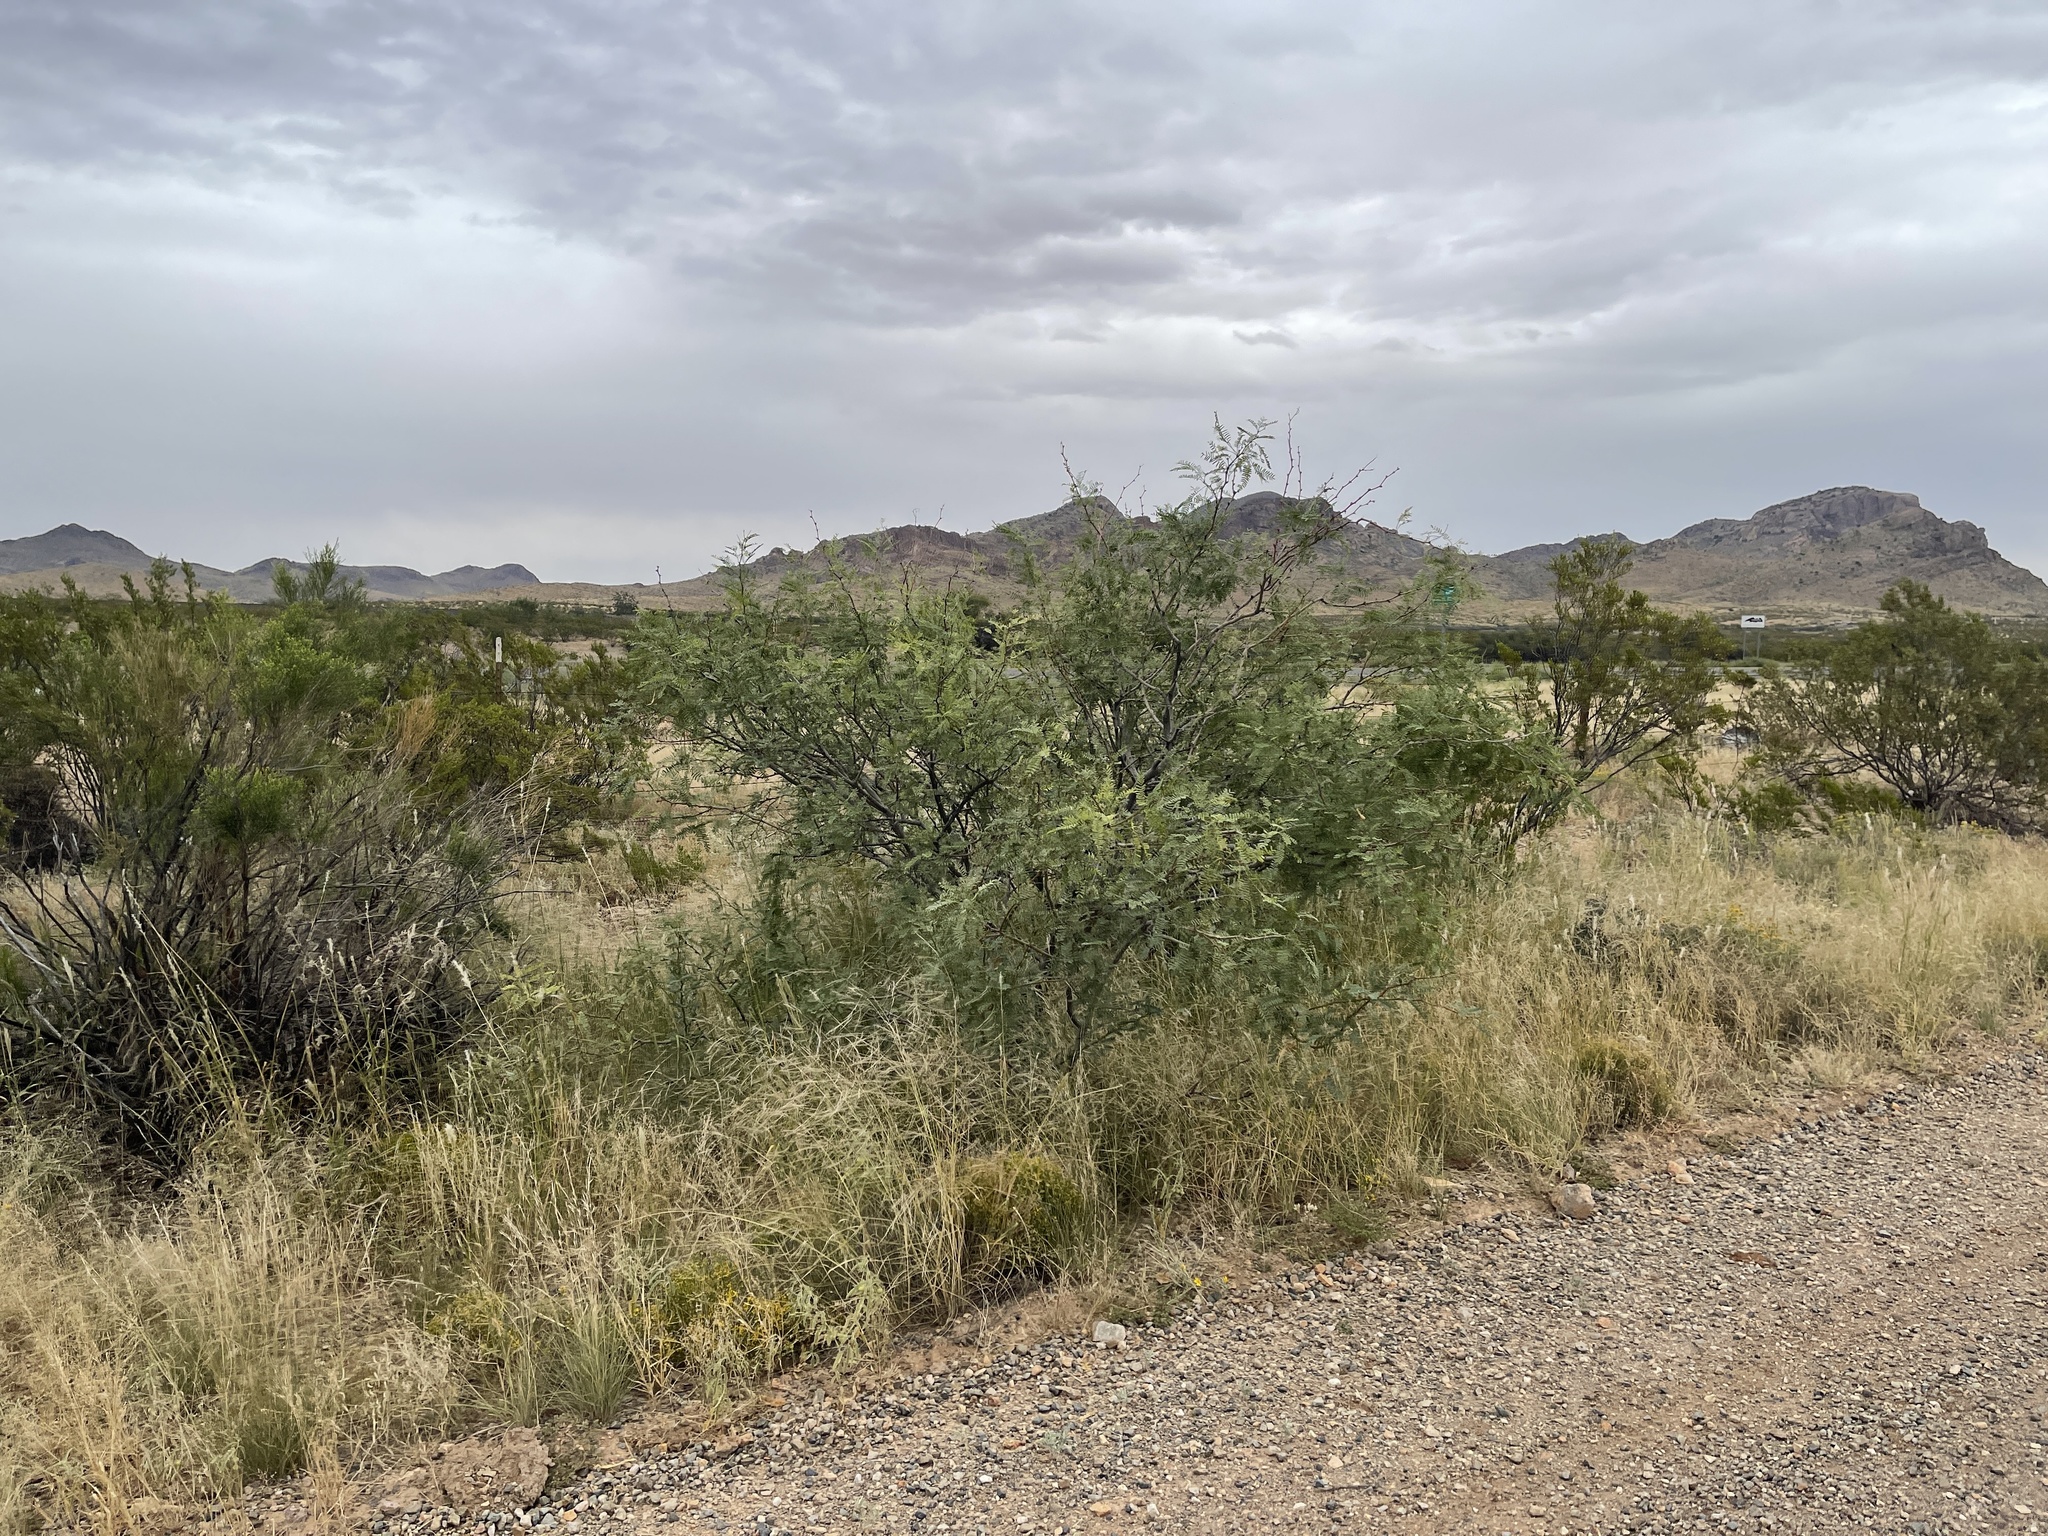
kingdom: Plantae
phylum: Tracheophyta
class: Magnoliopsida
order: Fabales
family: Fabaceae
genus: Prosopis
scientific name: Prosopis glandulosa
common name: Honey mesquite
